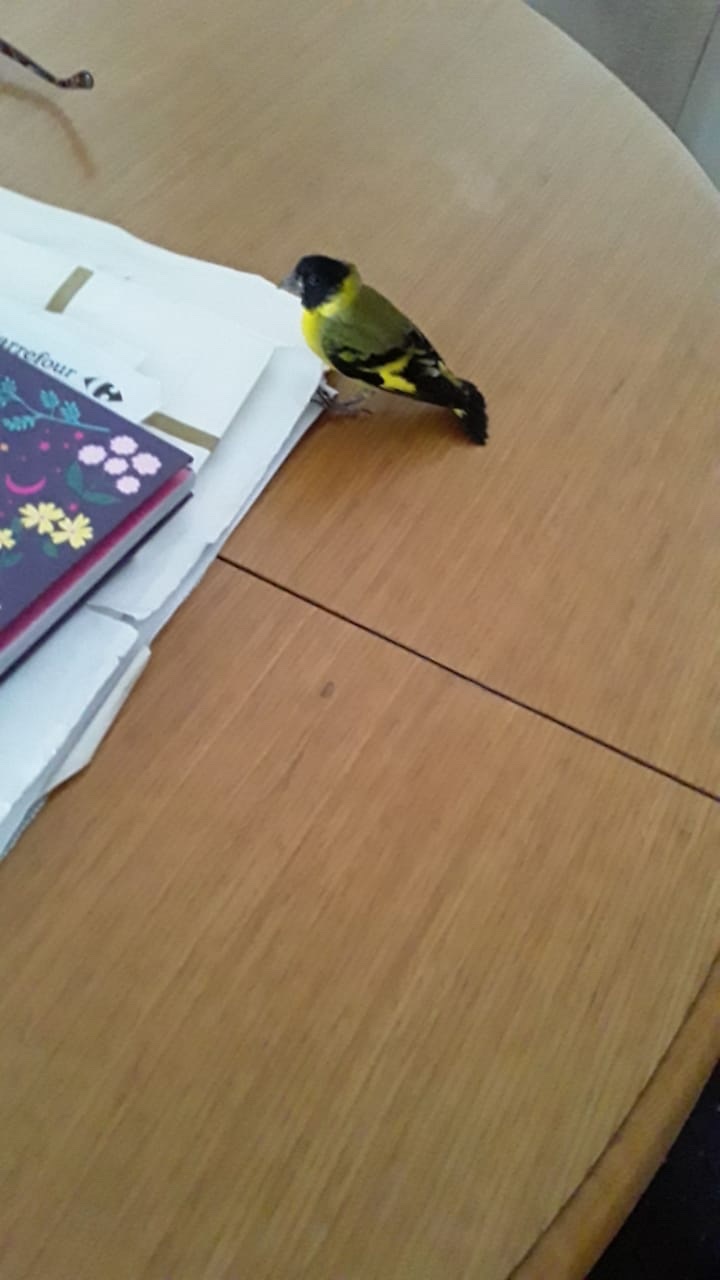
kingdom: Animalia
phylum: Chordata
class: Aves
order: Passeriformes
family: Fringillidae
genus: Spinus
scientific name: Spinus magellanicus
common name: Hooded siskin
